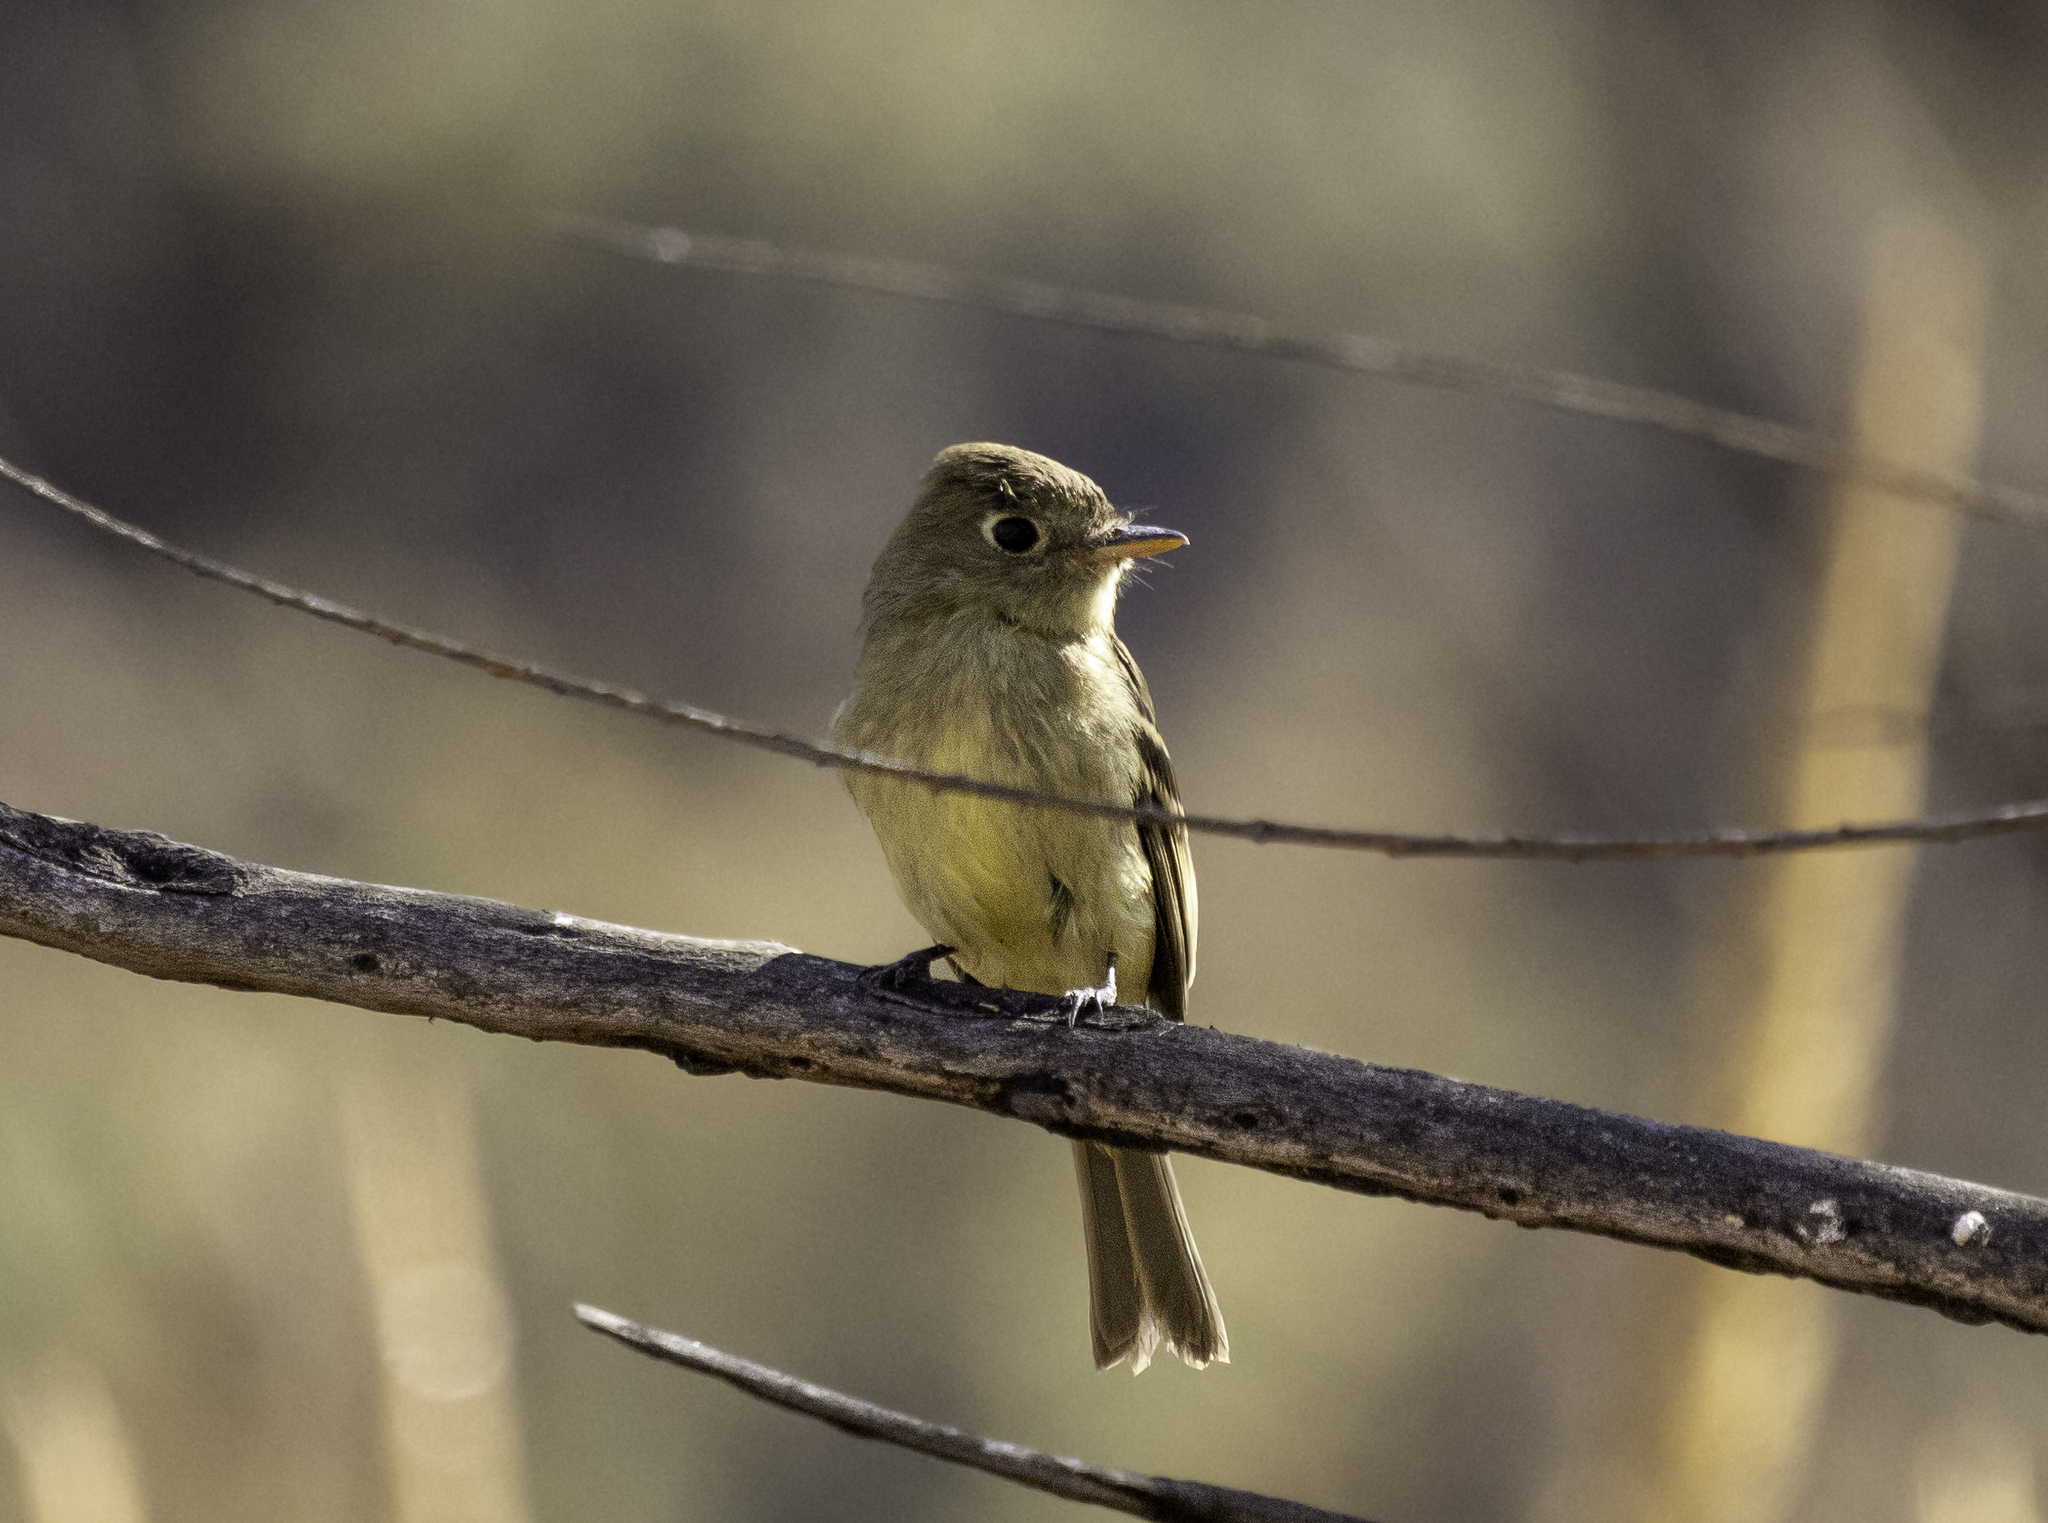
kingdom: Animalia
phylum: Chordata
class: Aves
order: Passeriformes
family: Tyrannidae
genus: Empidonax
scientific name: Empidonax difficilis
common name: Pacific-slope flycatcher
